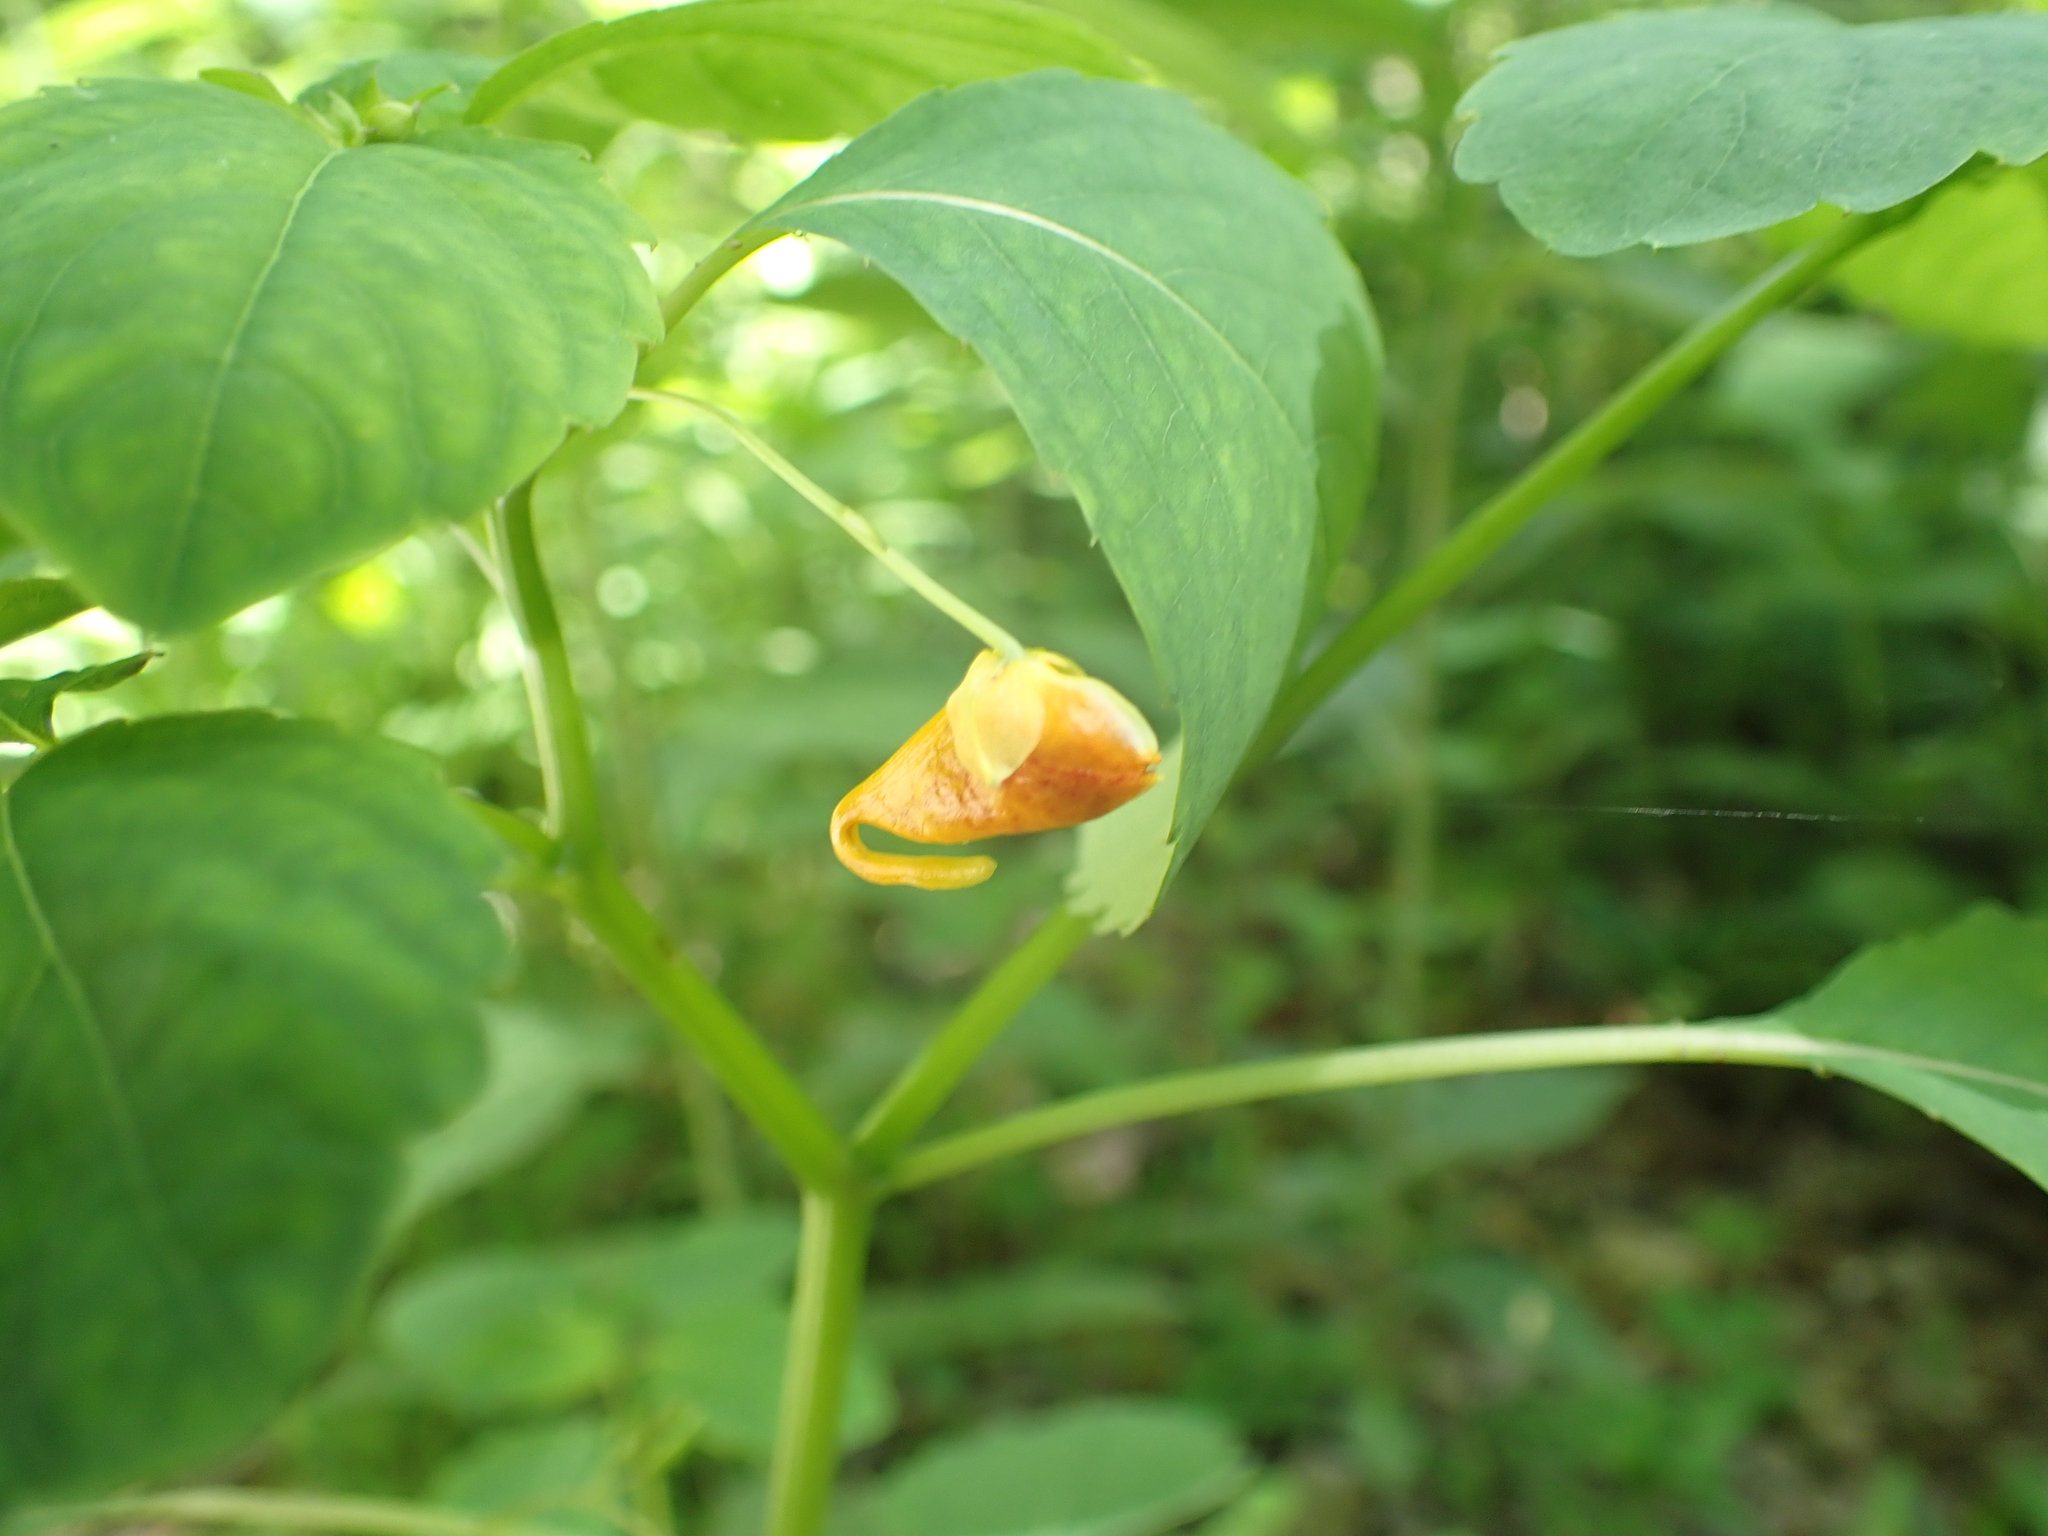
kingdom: Plantae
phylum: Tracheophyta
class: Magnoliopsida
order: Ericales
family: Balsaminaceae
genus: Impatiens
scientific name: Impatiens capensis
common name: Orange balsam
